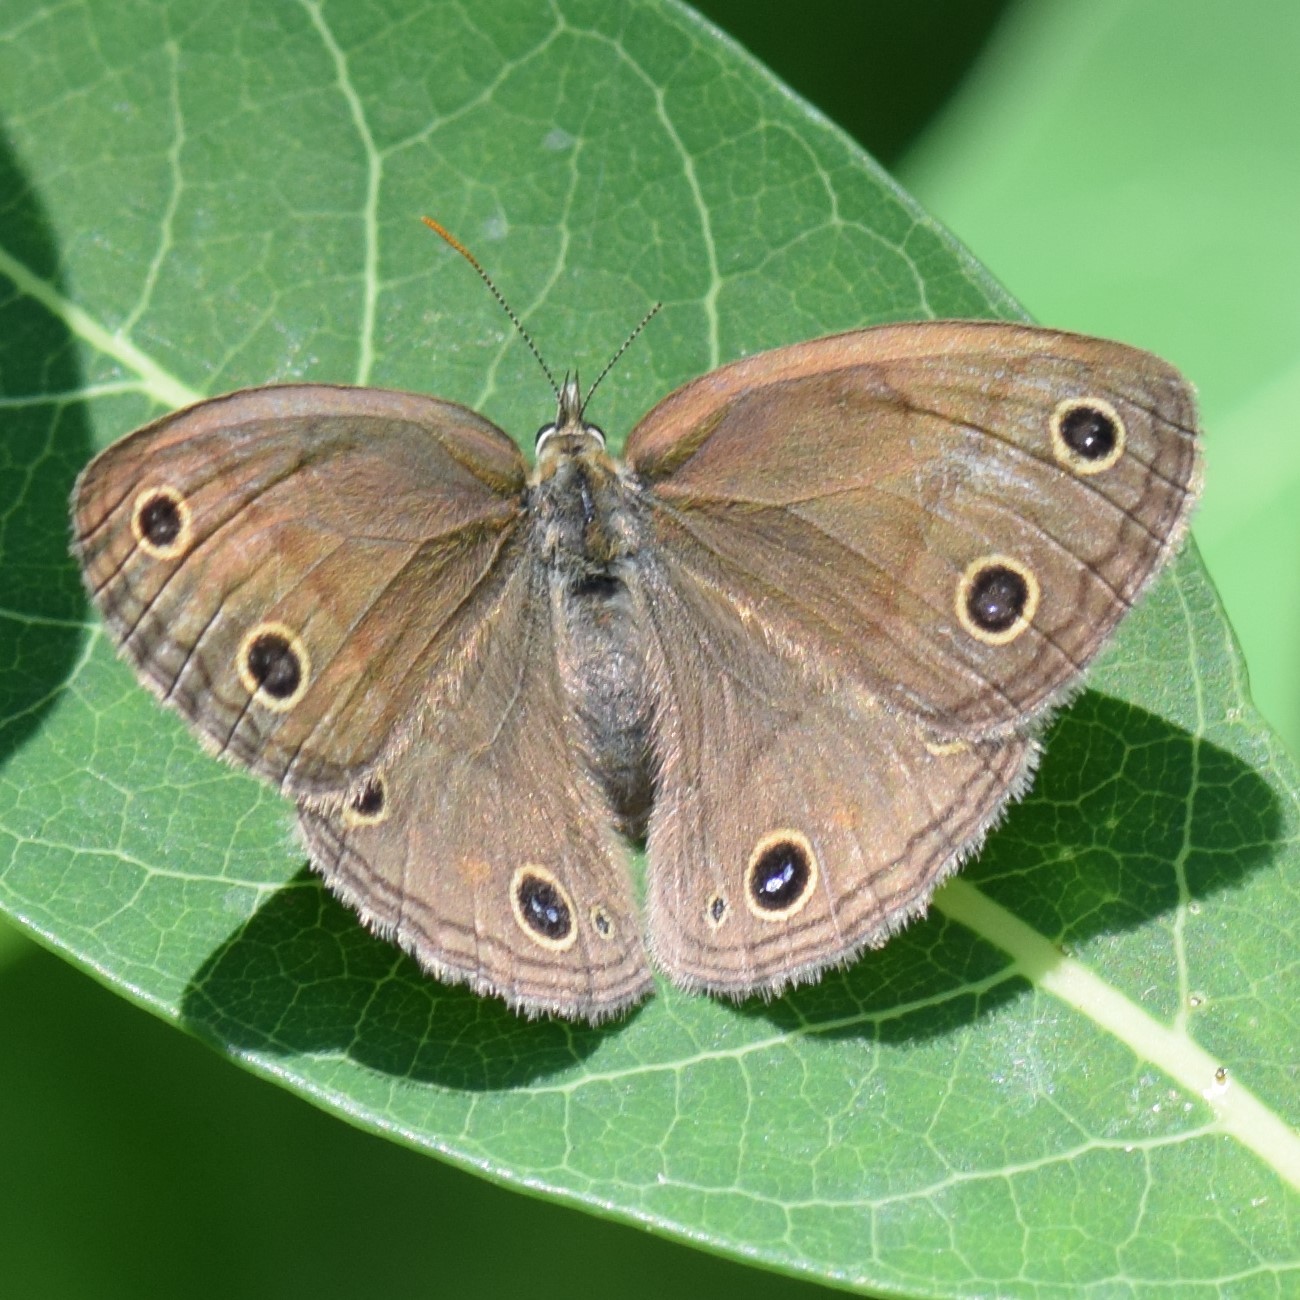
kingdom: Animalia
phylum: Arthropoda
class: Insecta
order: Lepidoptera
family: Nymphalidae
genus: Euptychia
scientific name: Euptychia cymela
